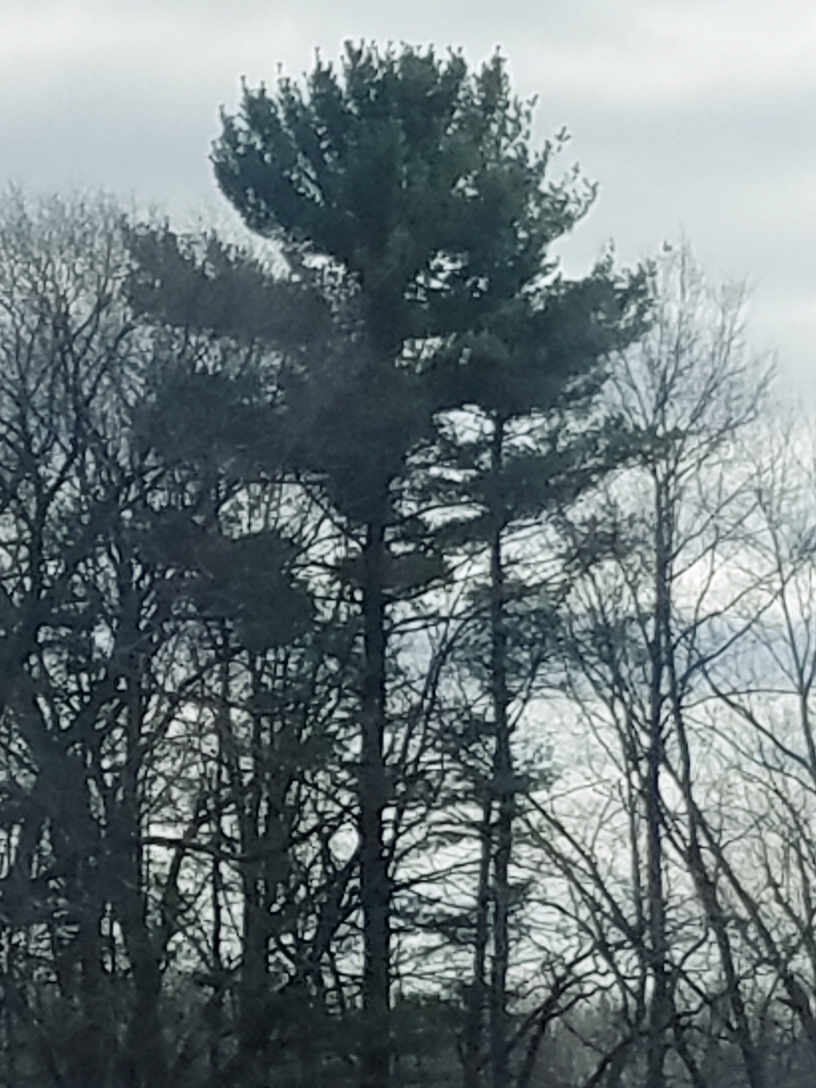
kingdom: Plantae
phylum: Tracheophyta
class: Pinopsida
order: Pinales
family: Pinaceae
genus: Pinus
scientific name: Pinus strobus
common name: Weymouth pine
